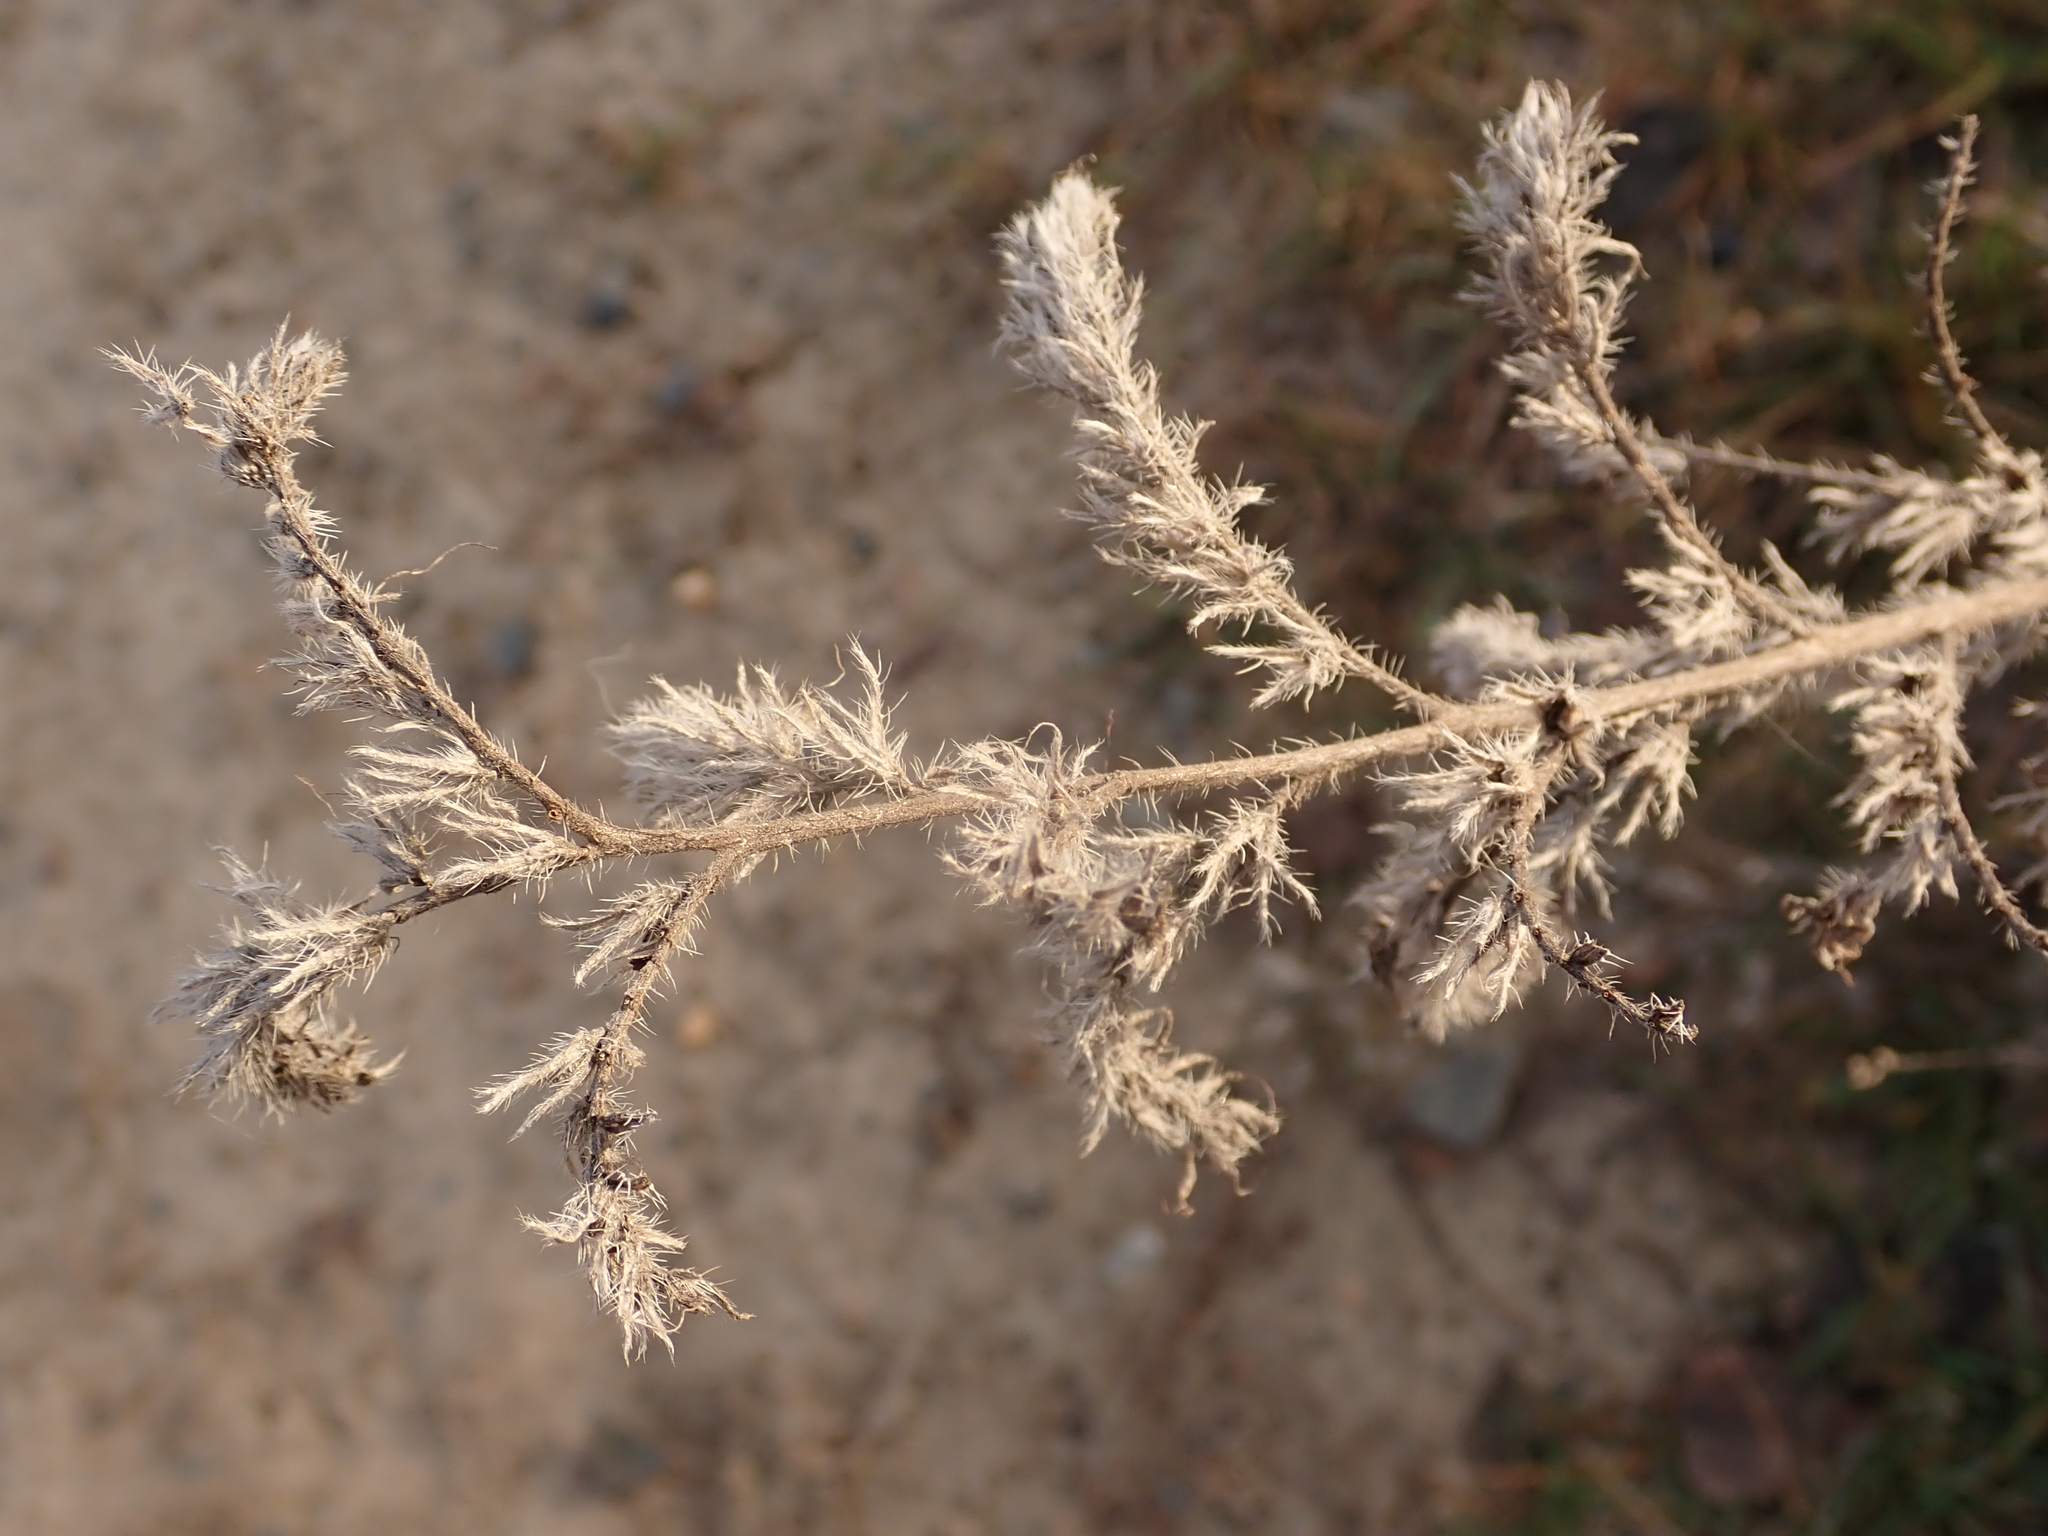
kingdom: Plantae
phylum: Tracheophyta
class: Magnoliopsida
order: Boraginales
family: Boraginaceae
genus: Echium
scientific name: Echium vulgare
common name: Common viper's bugloss
